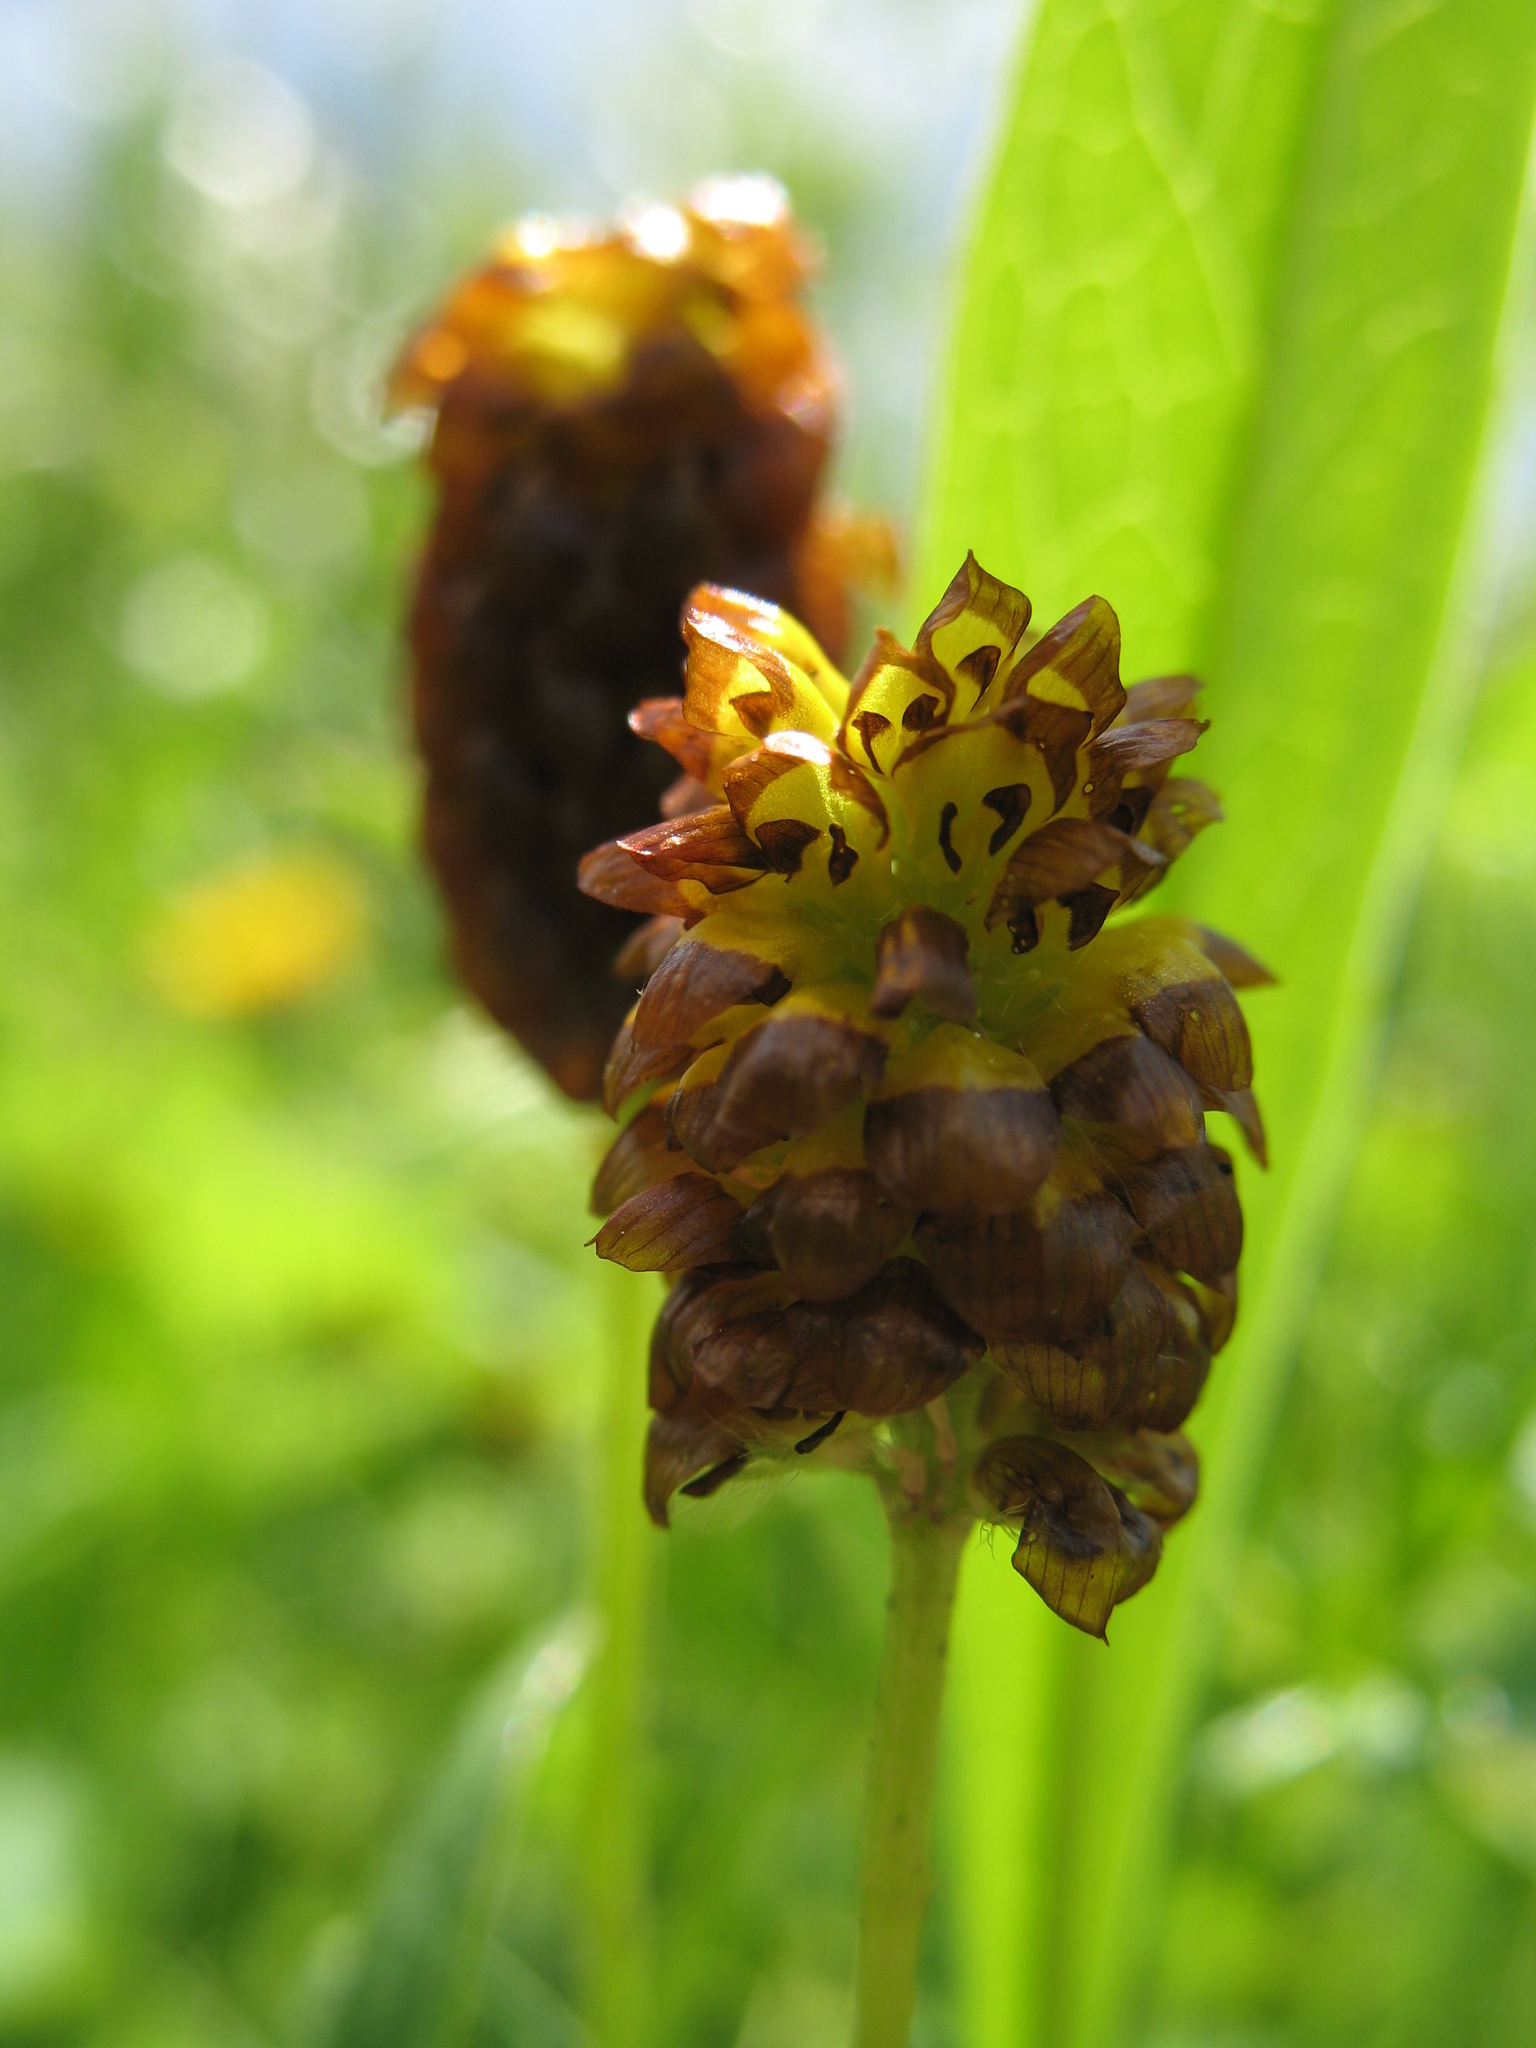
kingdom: Plantae
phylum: Tracheophyta
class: Magnoliopsida
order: Fabales
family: Fabaceae
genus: Trifolium
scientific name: Trifolium spadiceum
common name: Brown moor clover
